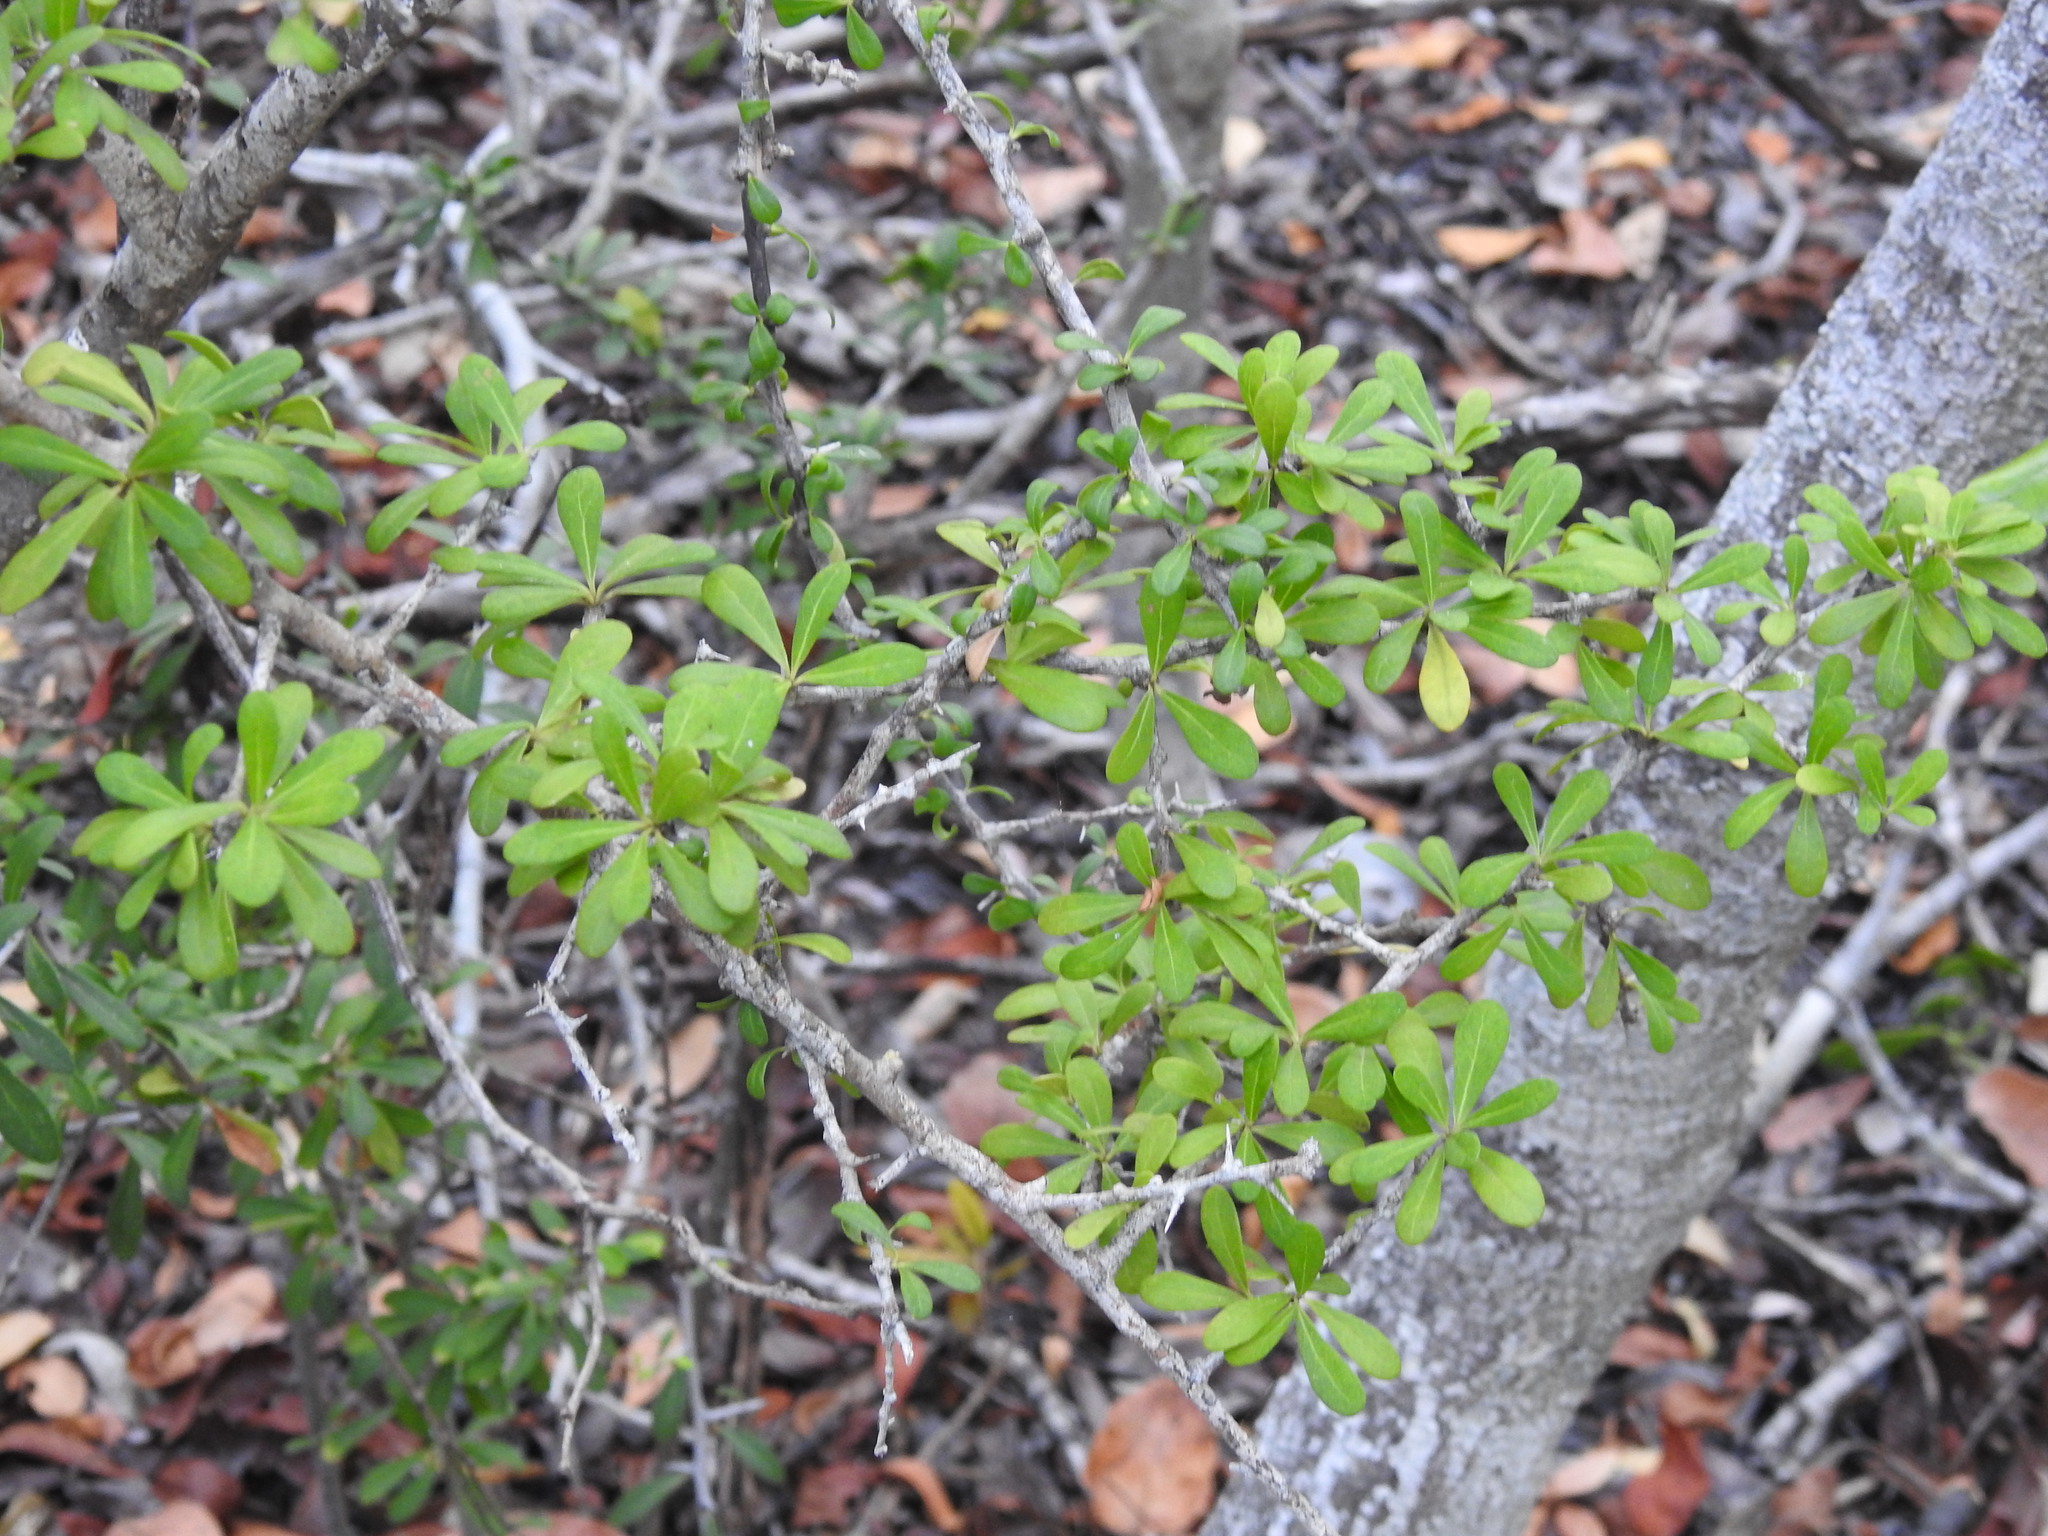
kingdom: Plantae
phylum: Tracheophyta
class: Magnoliopsida
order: Ericales
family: Sapotaceae
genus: Sideroxylon
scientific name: Sideroxylon celastrinum
